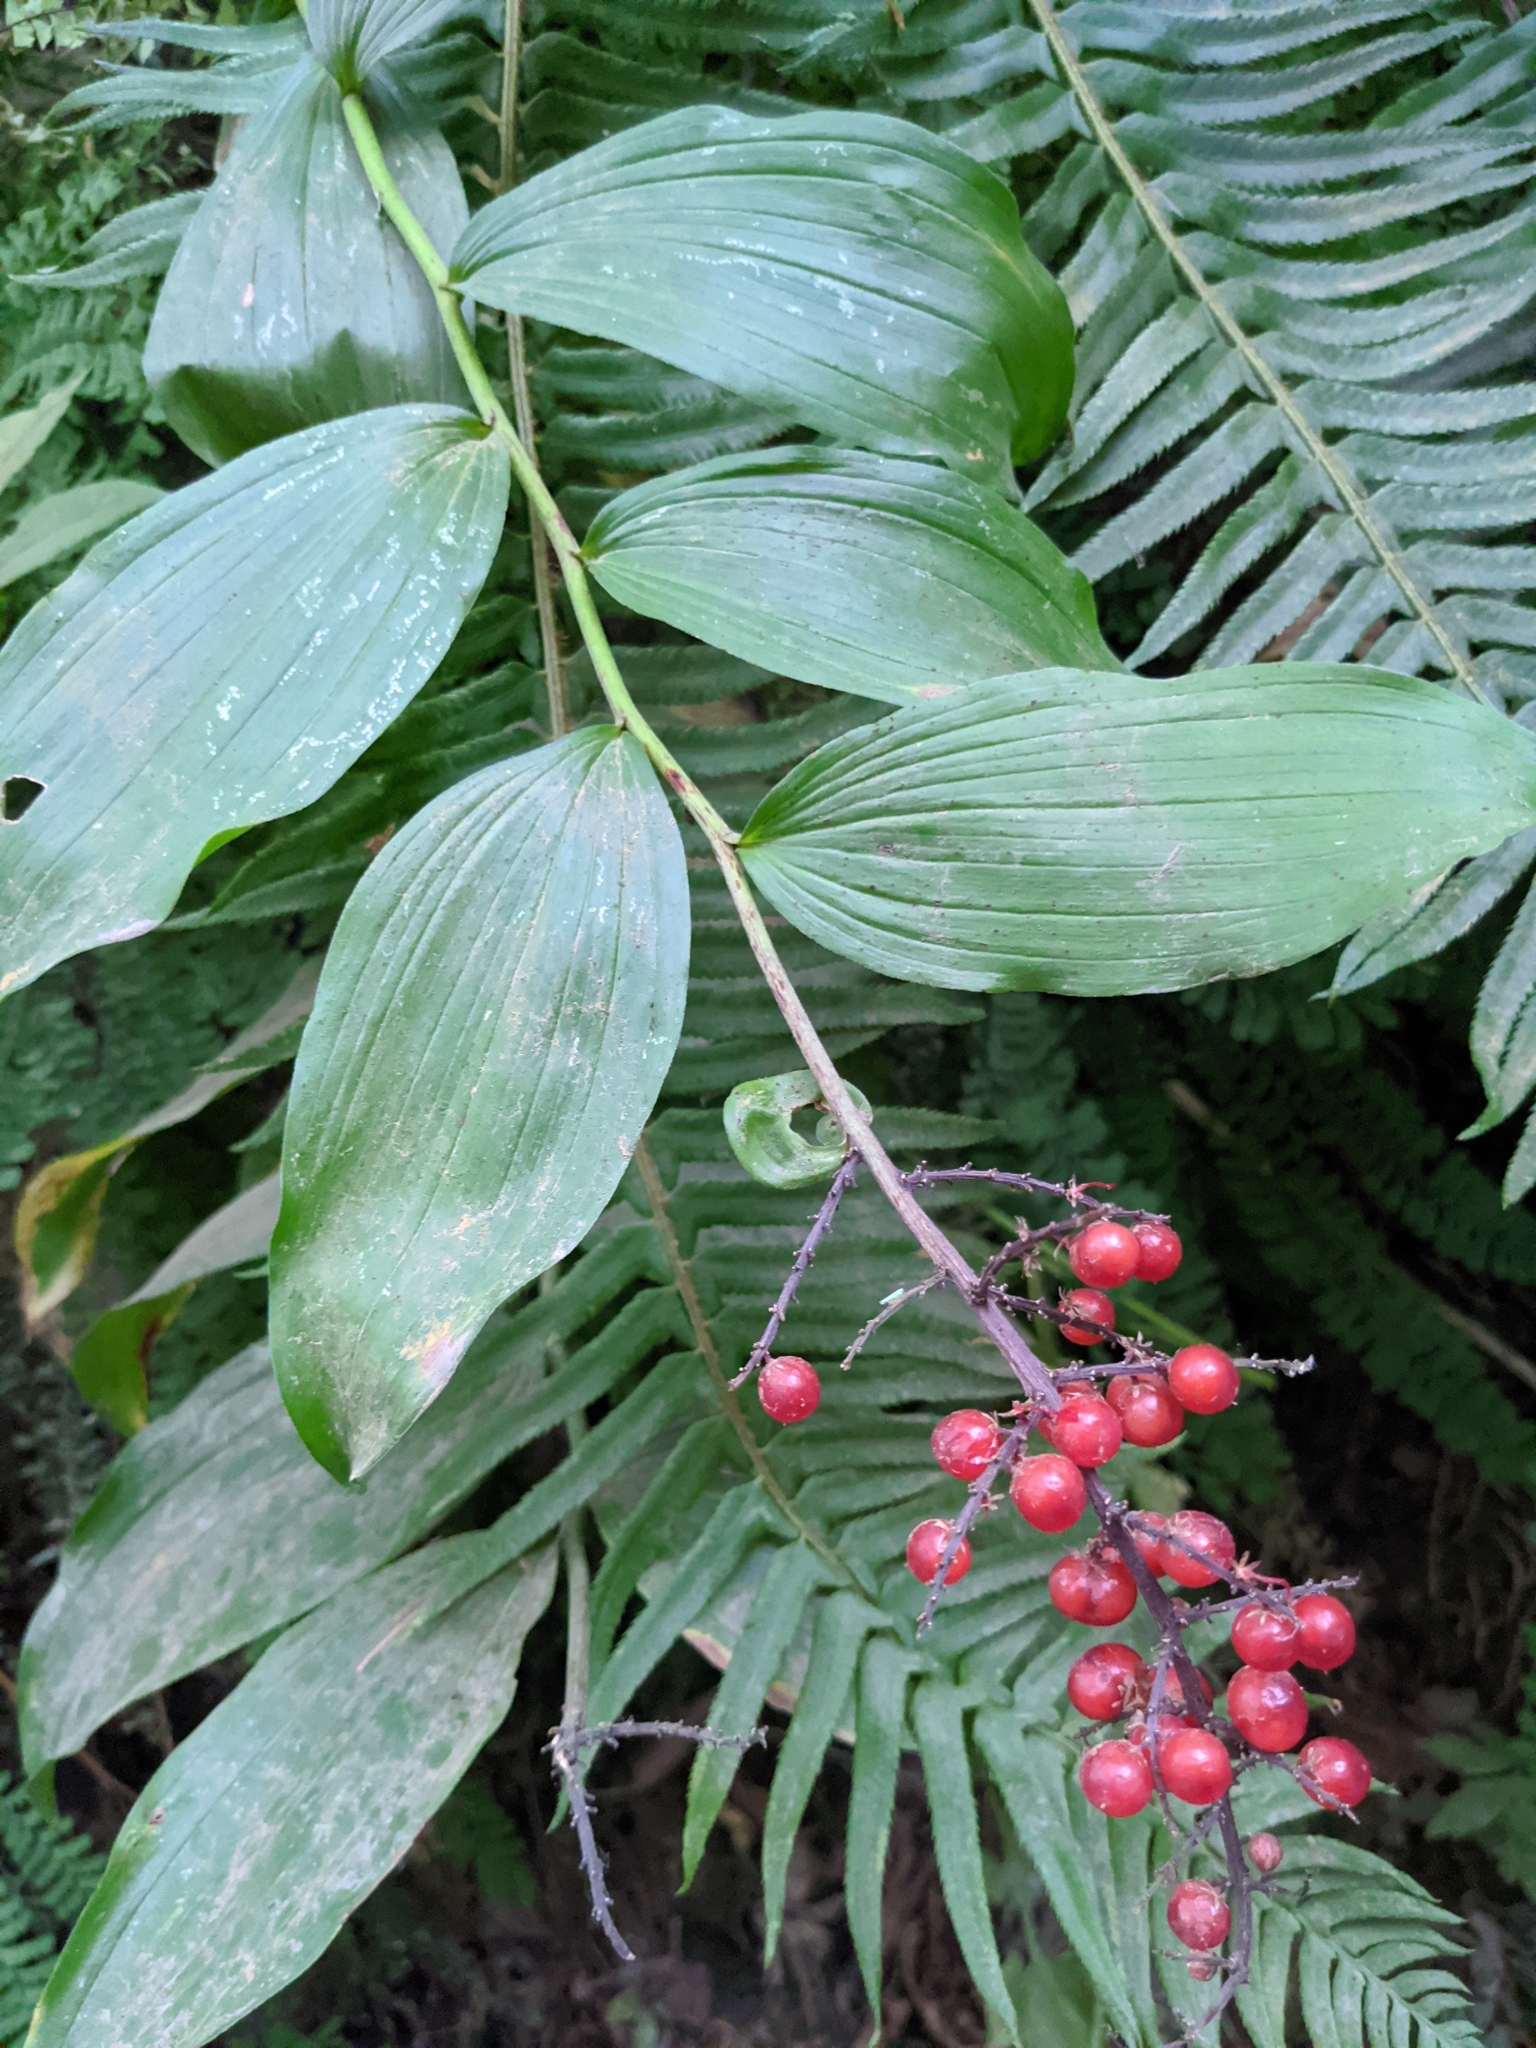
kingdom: Plantae
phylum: Tracheophyta
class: Liliopsida
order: Asparagales
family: Asparagaceae
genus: Maianthemum
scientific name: Maianthemum racemosum
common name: False spikenard
